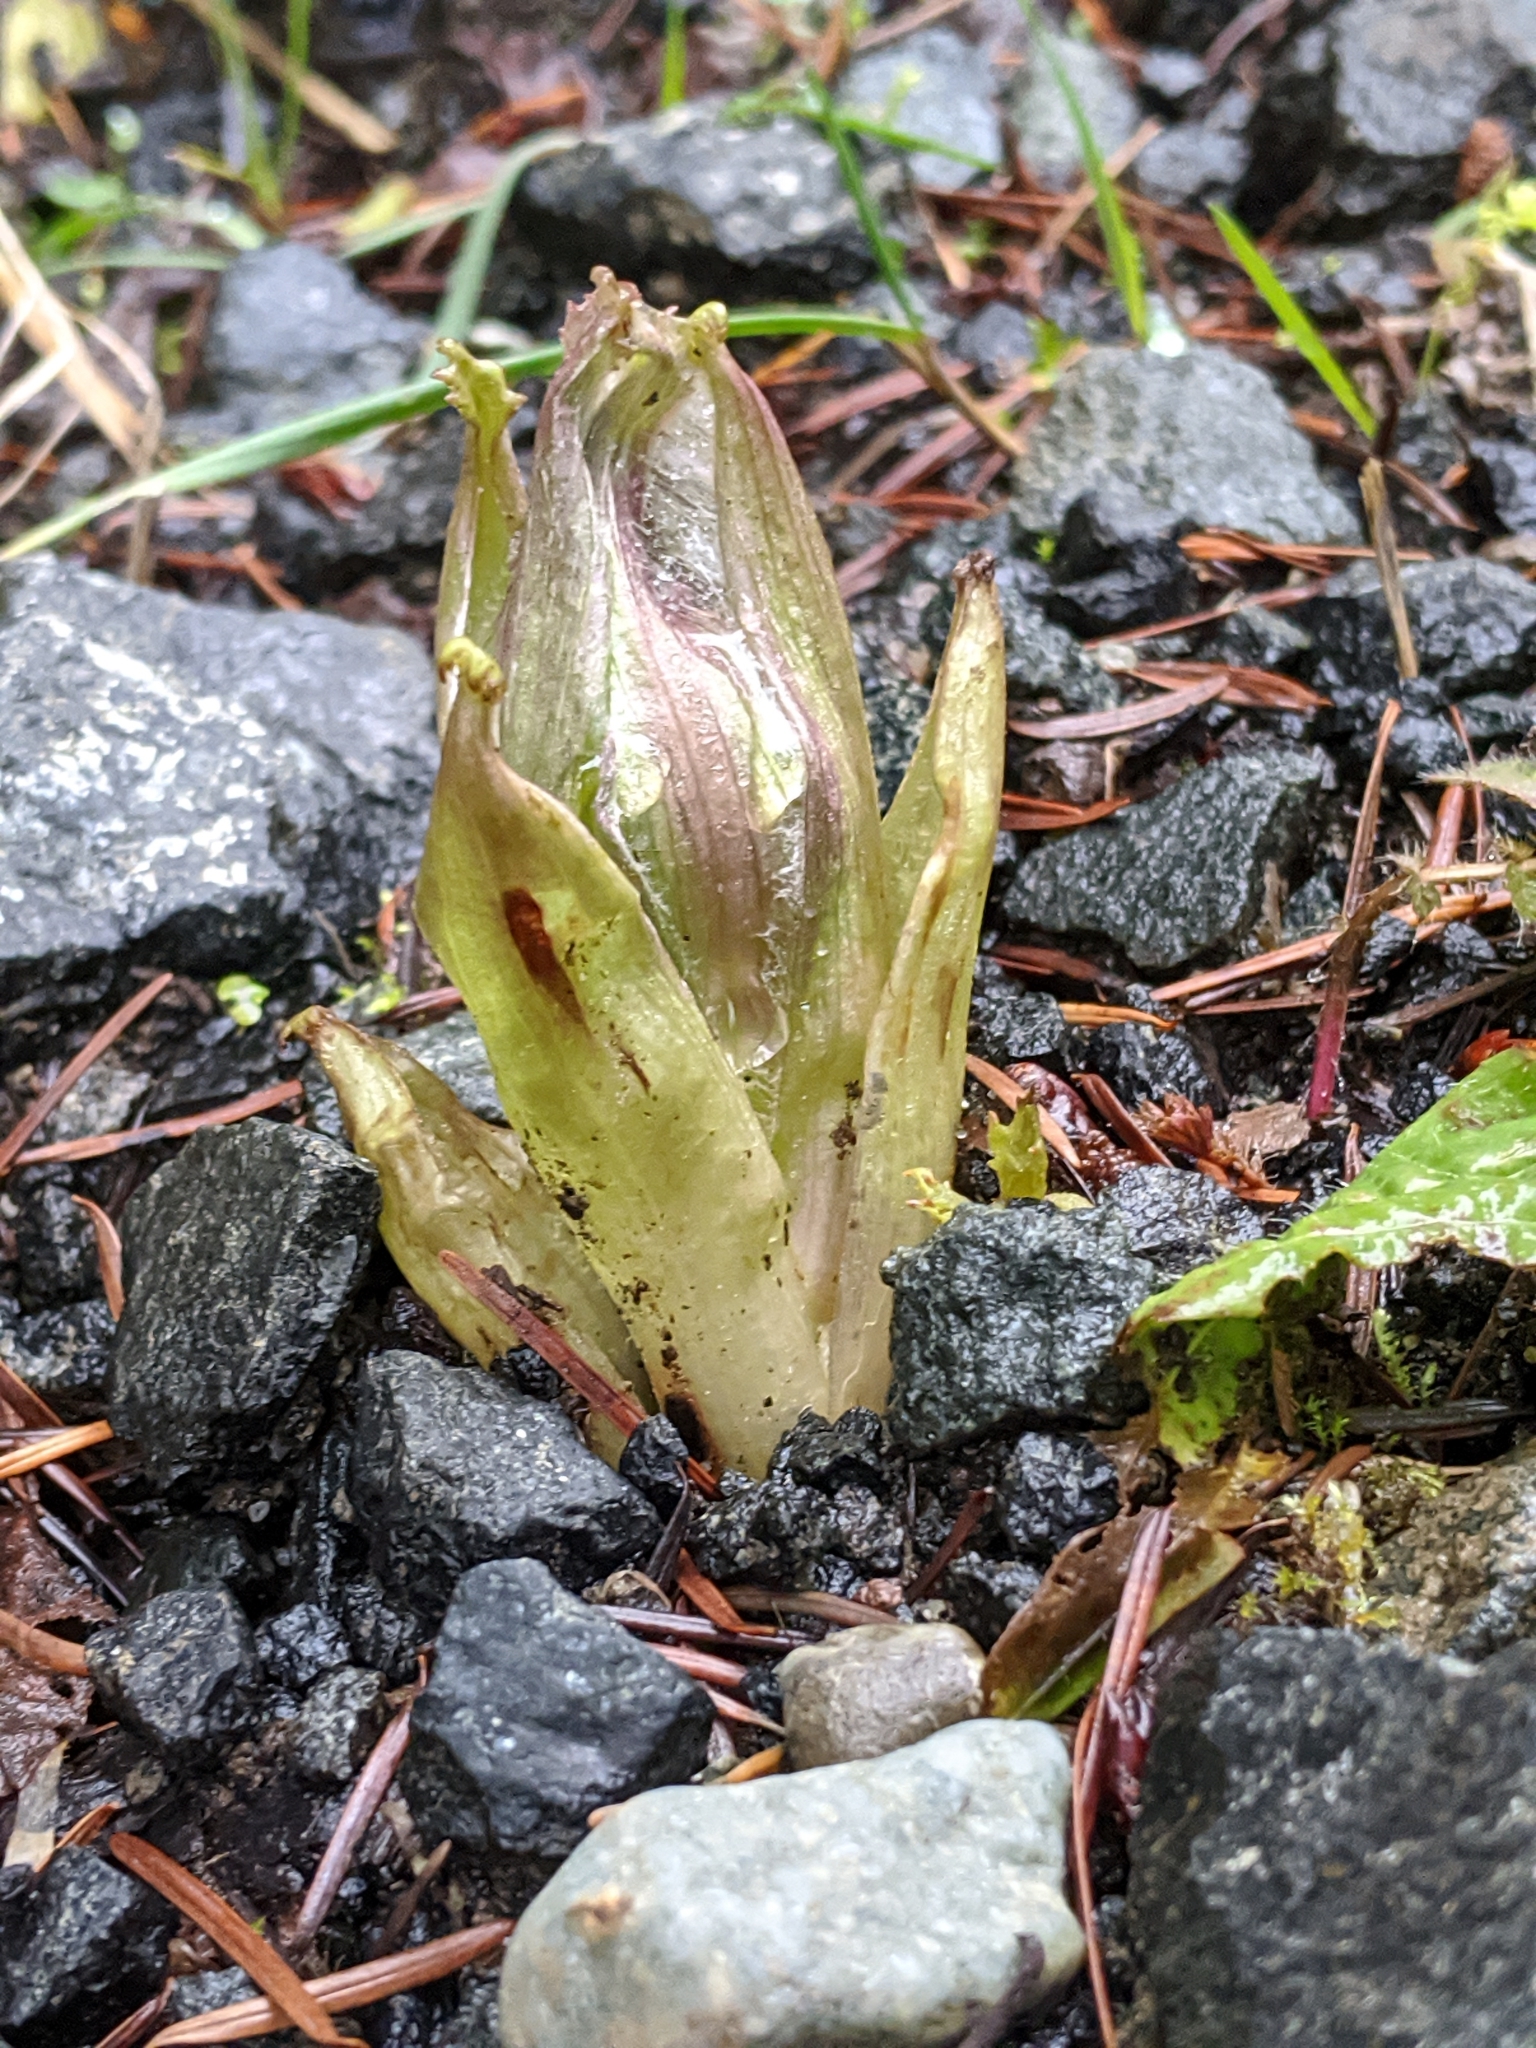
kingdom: Plantae
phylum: Tracheophyta
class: Magnoliopsida
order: Asterales
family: Asteraceae
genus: Petasites
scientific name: Petasites frigidus
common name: Arctic butterbur
